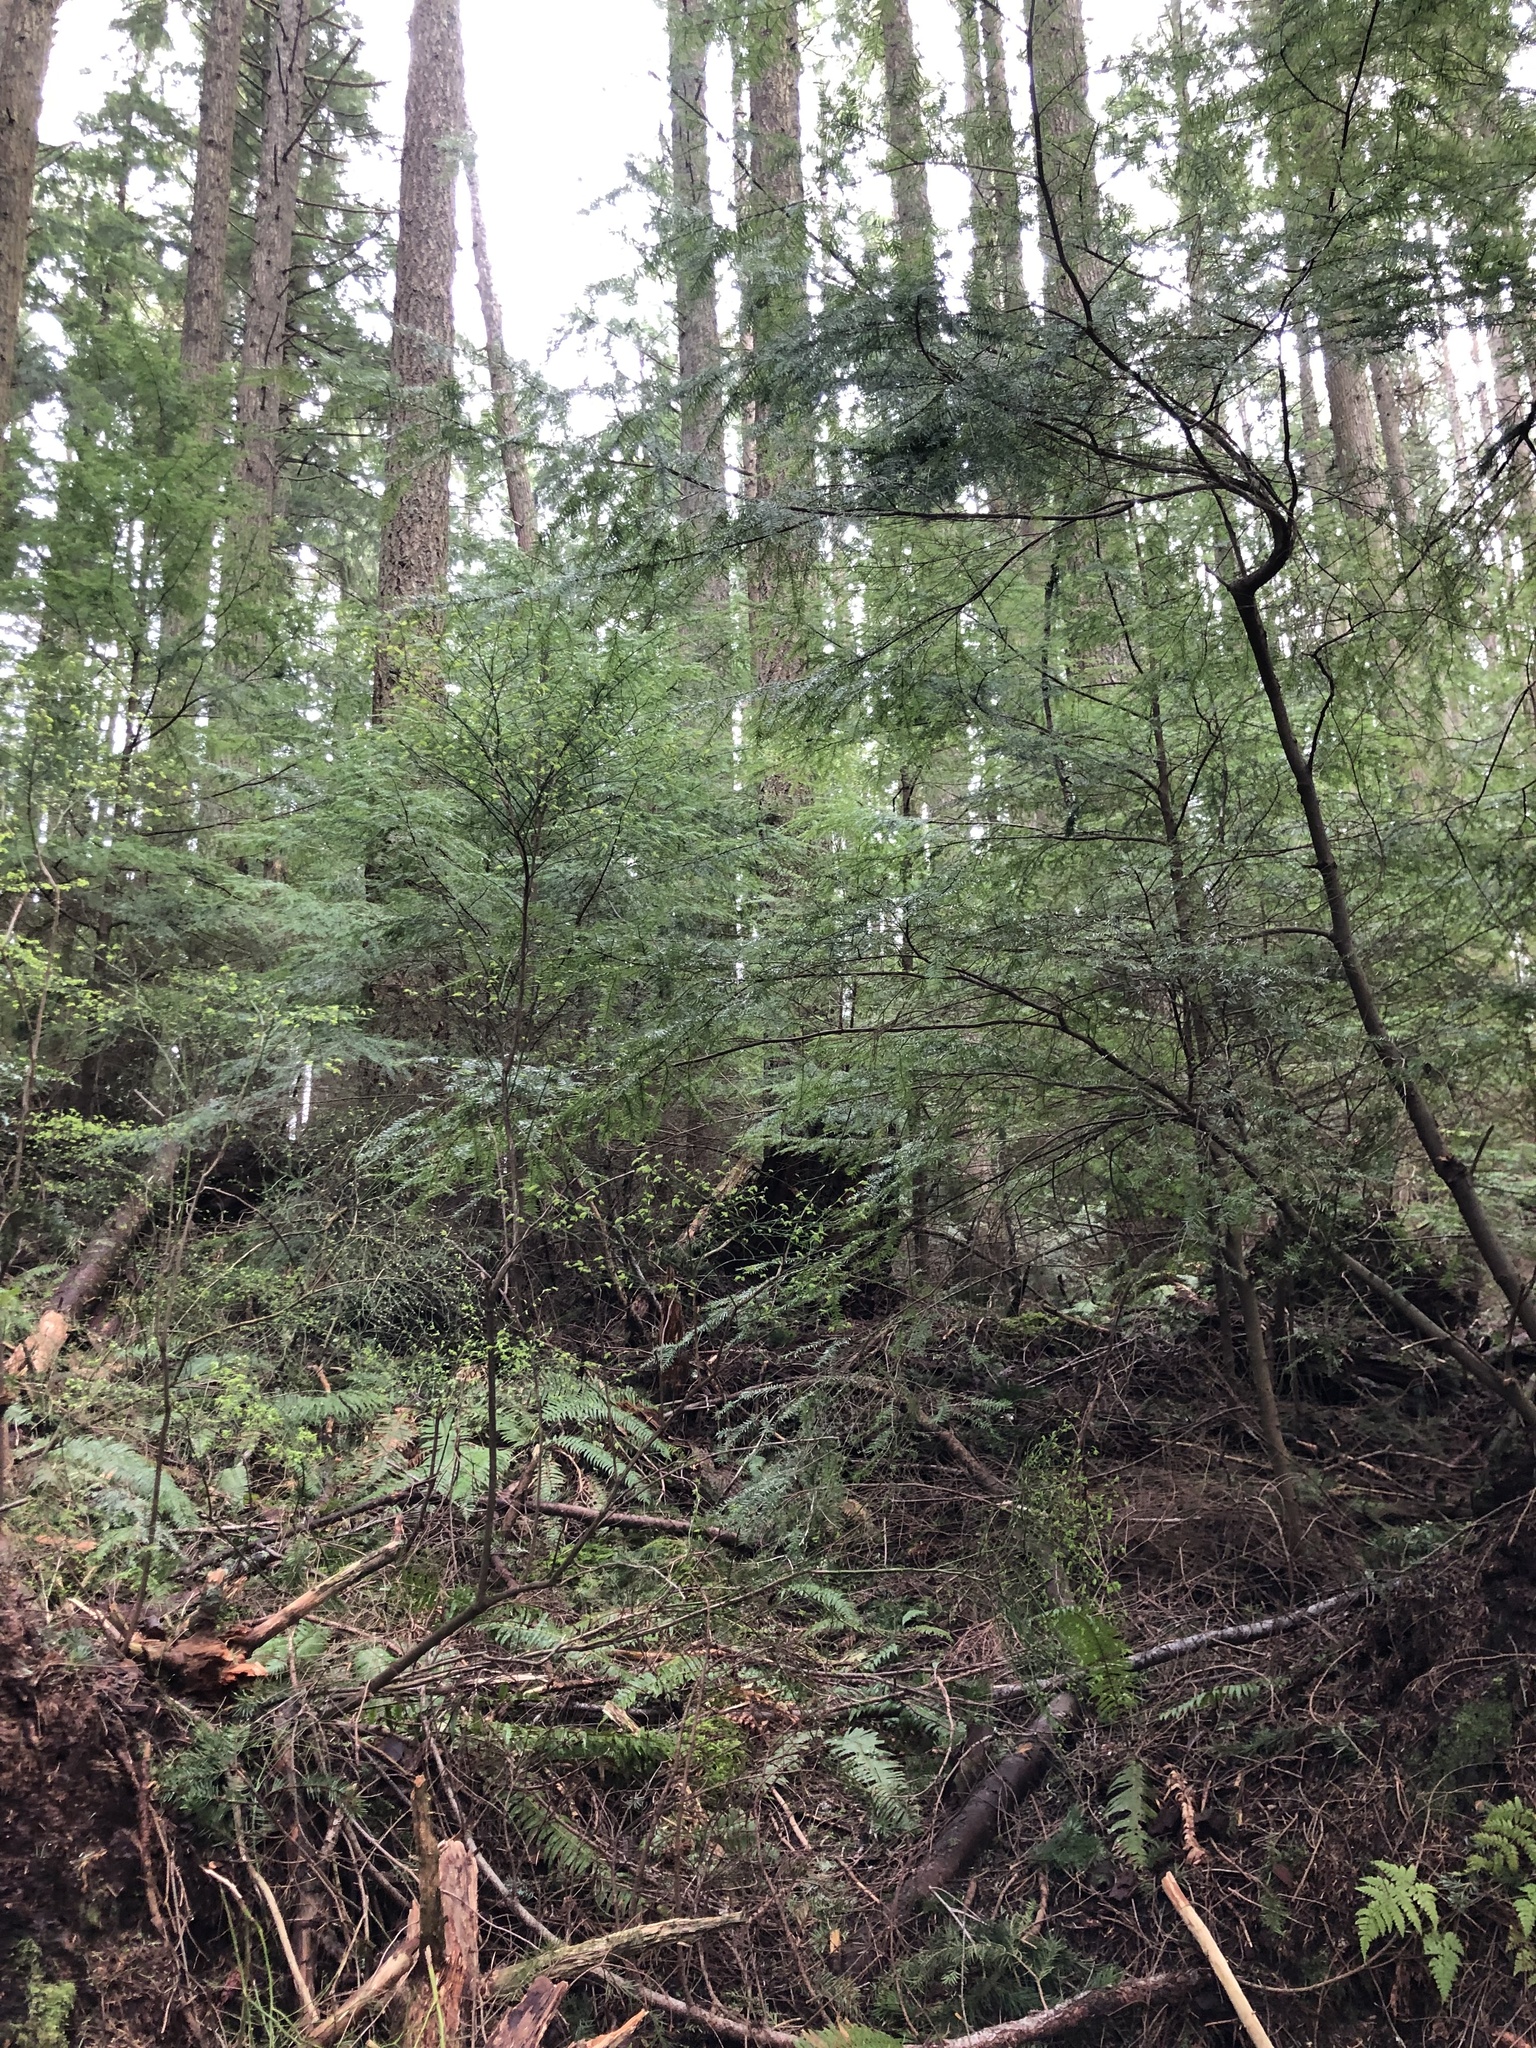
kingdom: Plantae
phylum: Tracheophyta
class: Pinopsida
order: Pinales
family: Pinaceae
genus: Tsuga
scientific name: Tsuga heterophylla
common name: Western hemlock
